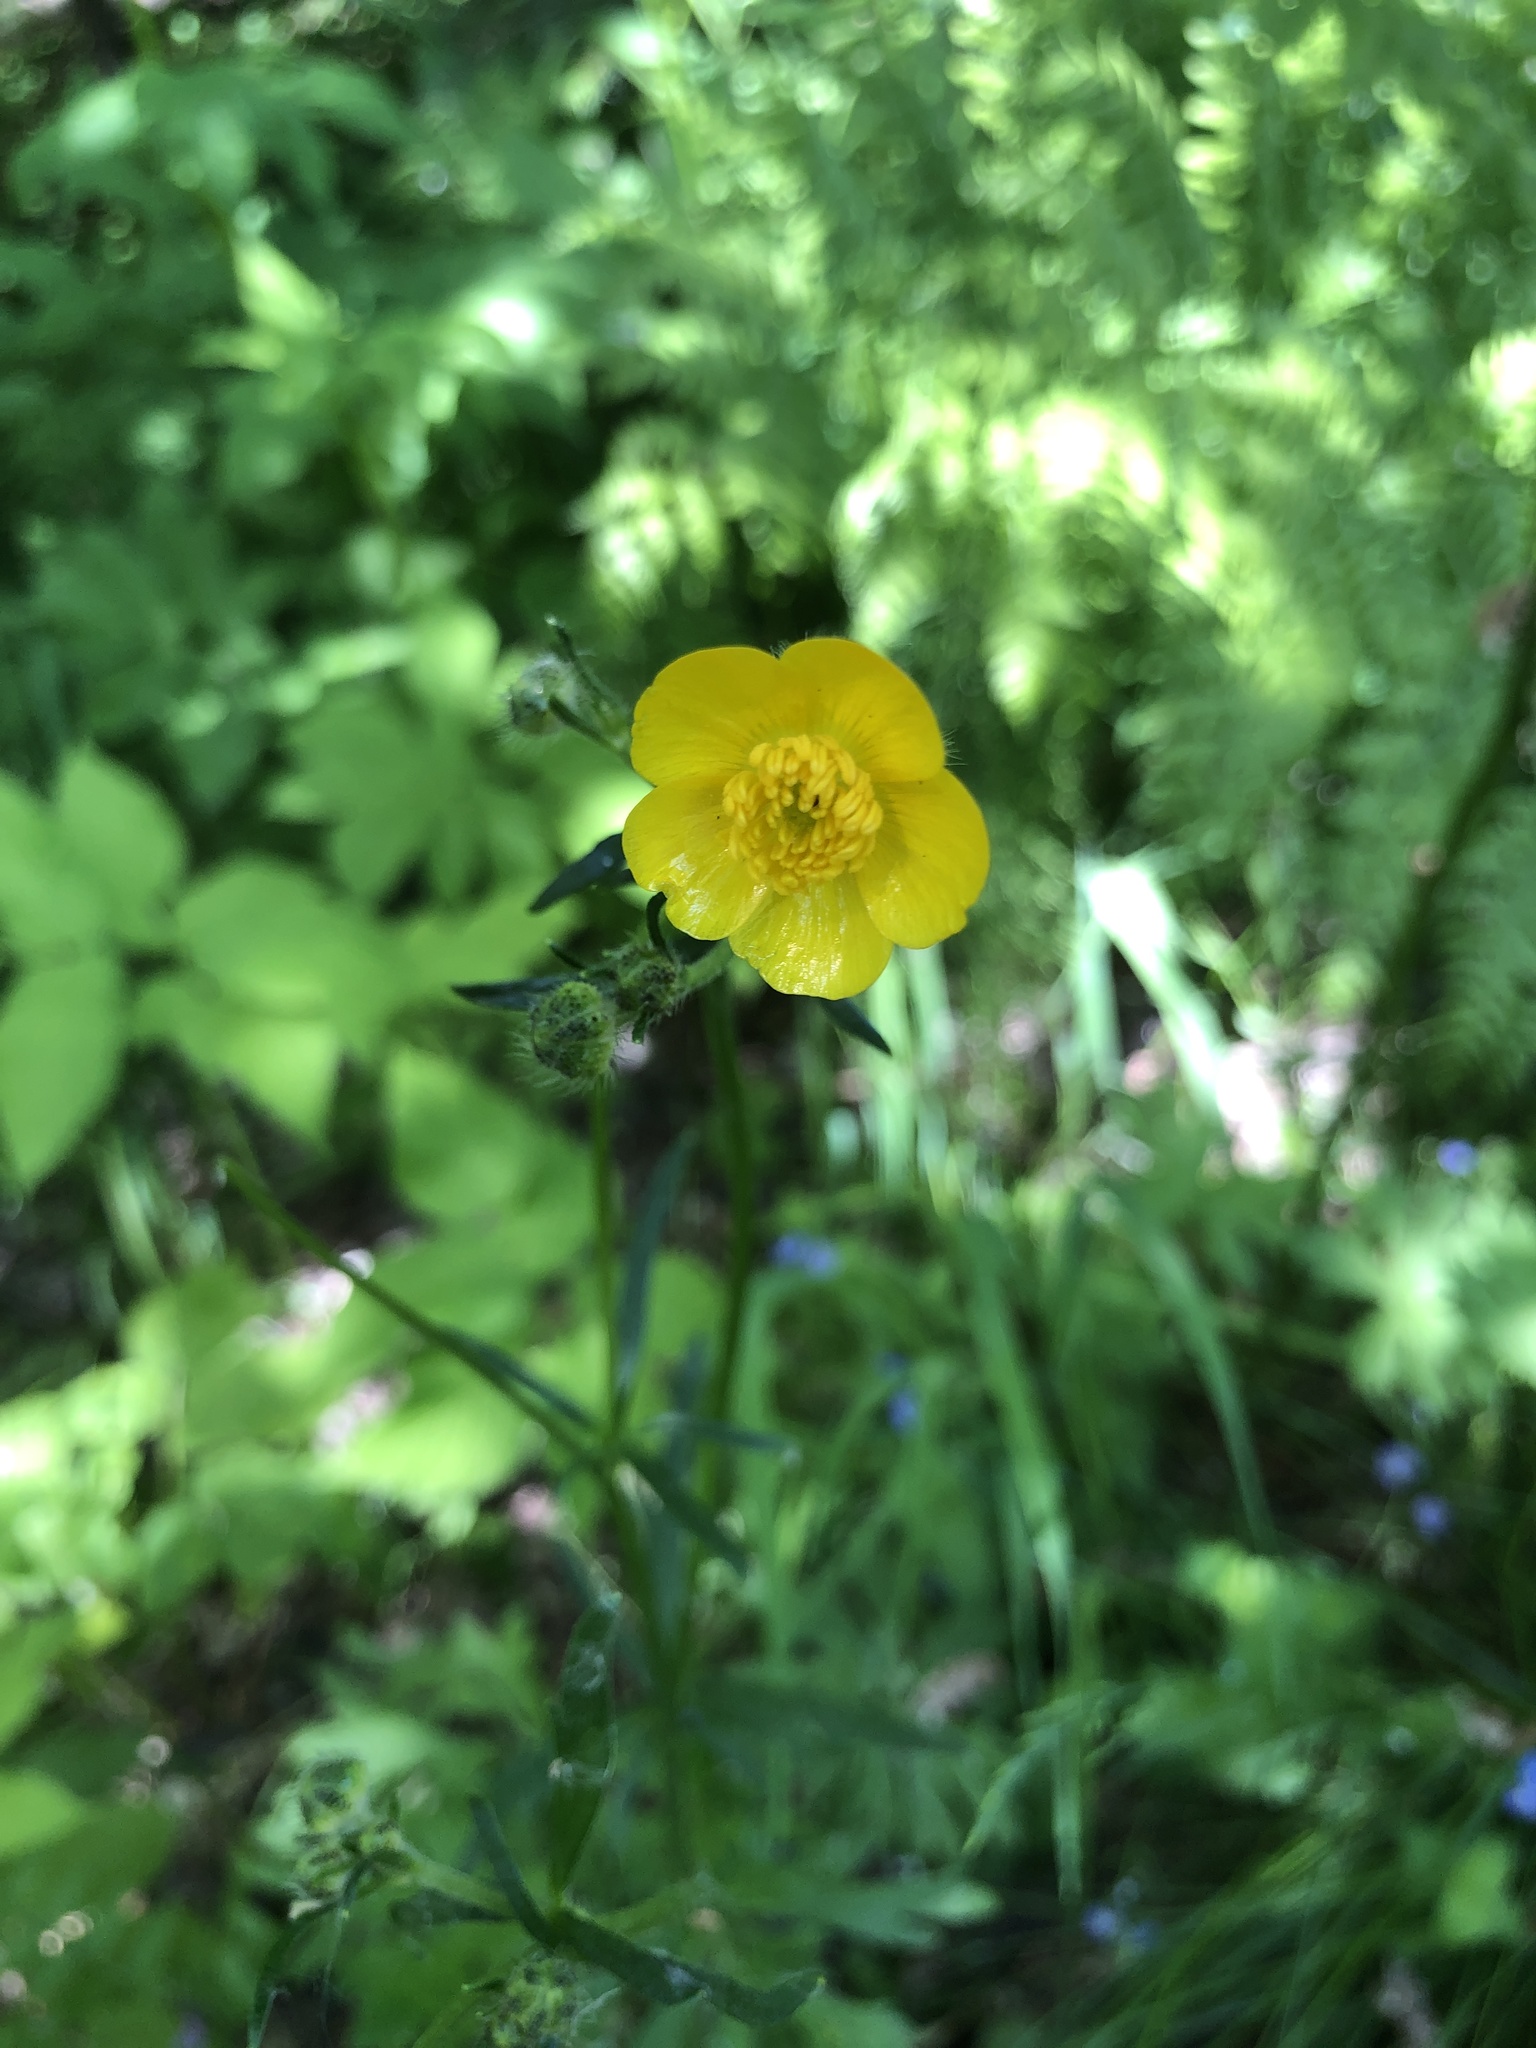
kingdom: Plantae
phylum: Tracheophyta
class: Magnoliopsida
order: Ranunculales
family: Ranunculaceae
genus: Ranunculus
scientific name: Ranunculus polyanthemos
